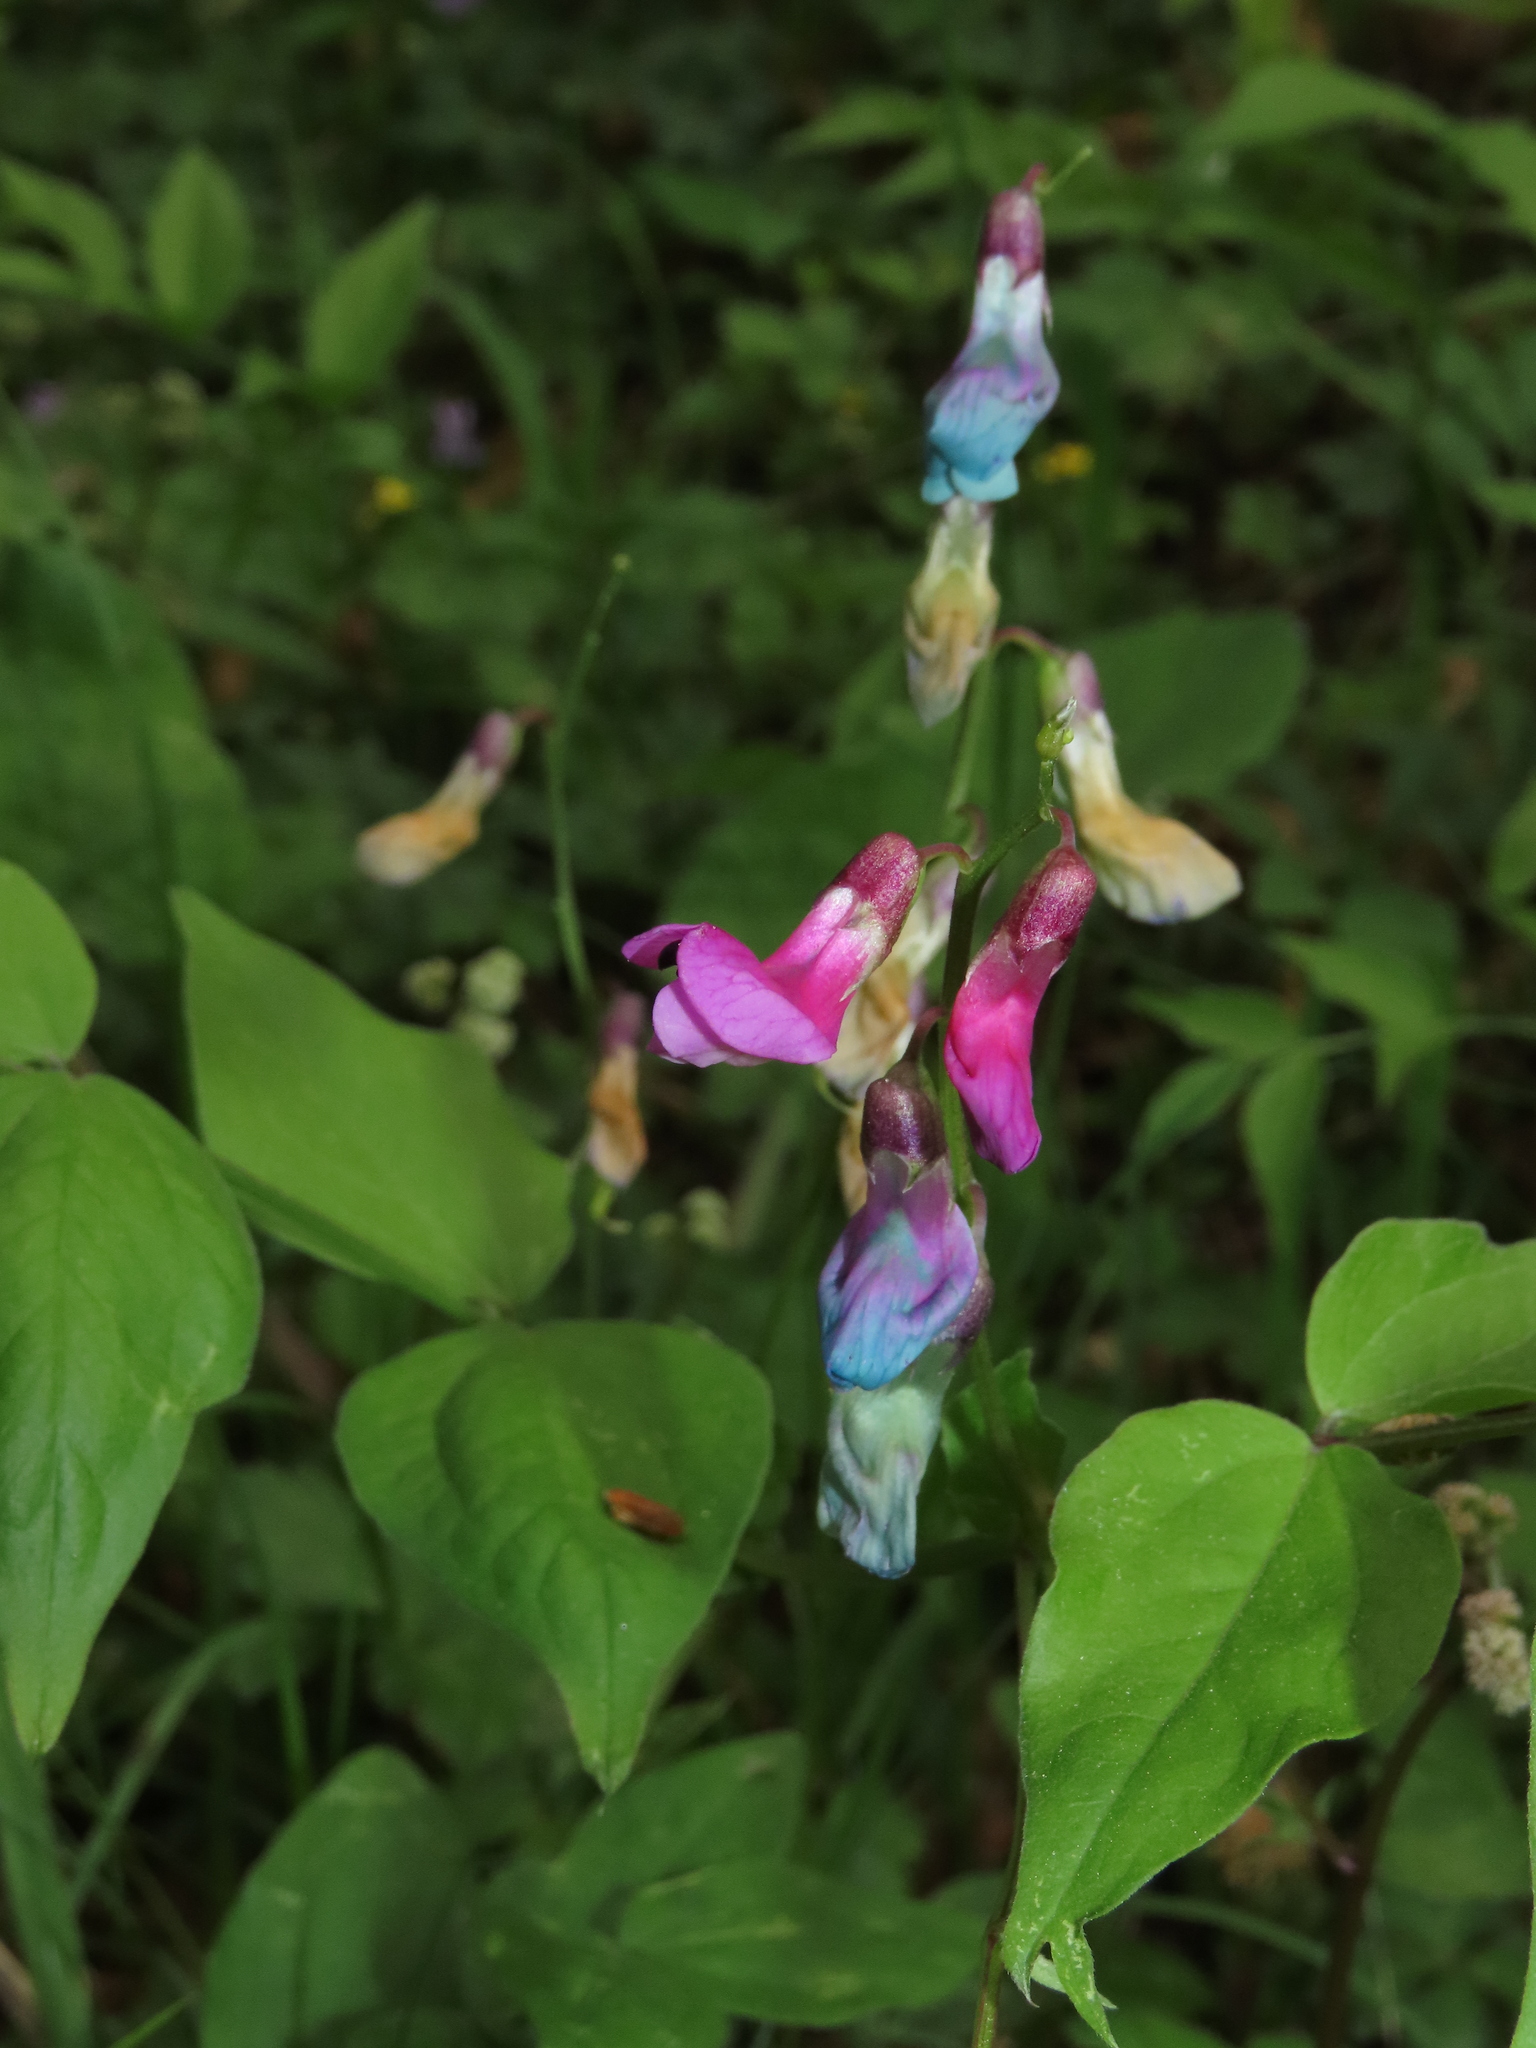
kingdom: Plantae
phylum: Tracheophyta
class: Magnoliopsida
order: Fabales
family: Fabaceae
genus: Lathyrus
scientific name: Lathyrus vernus
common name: Spring pea
